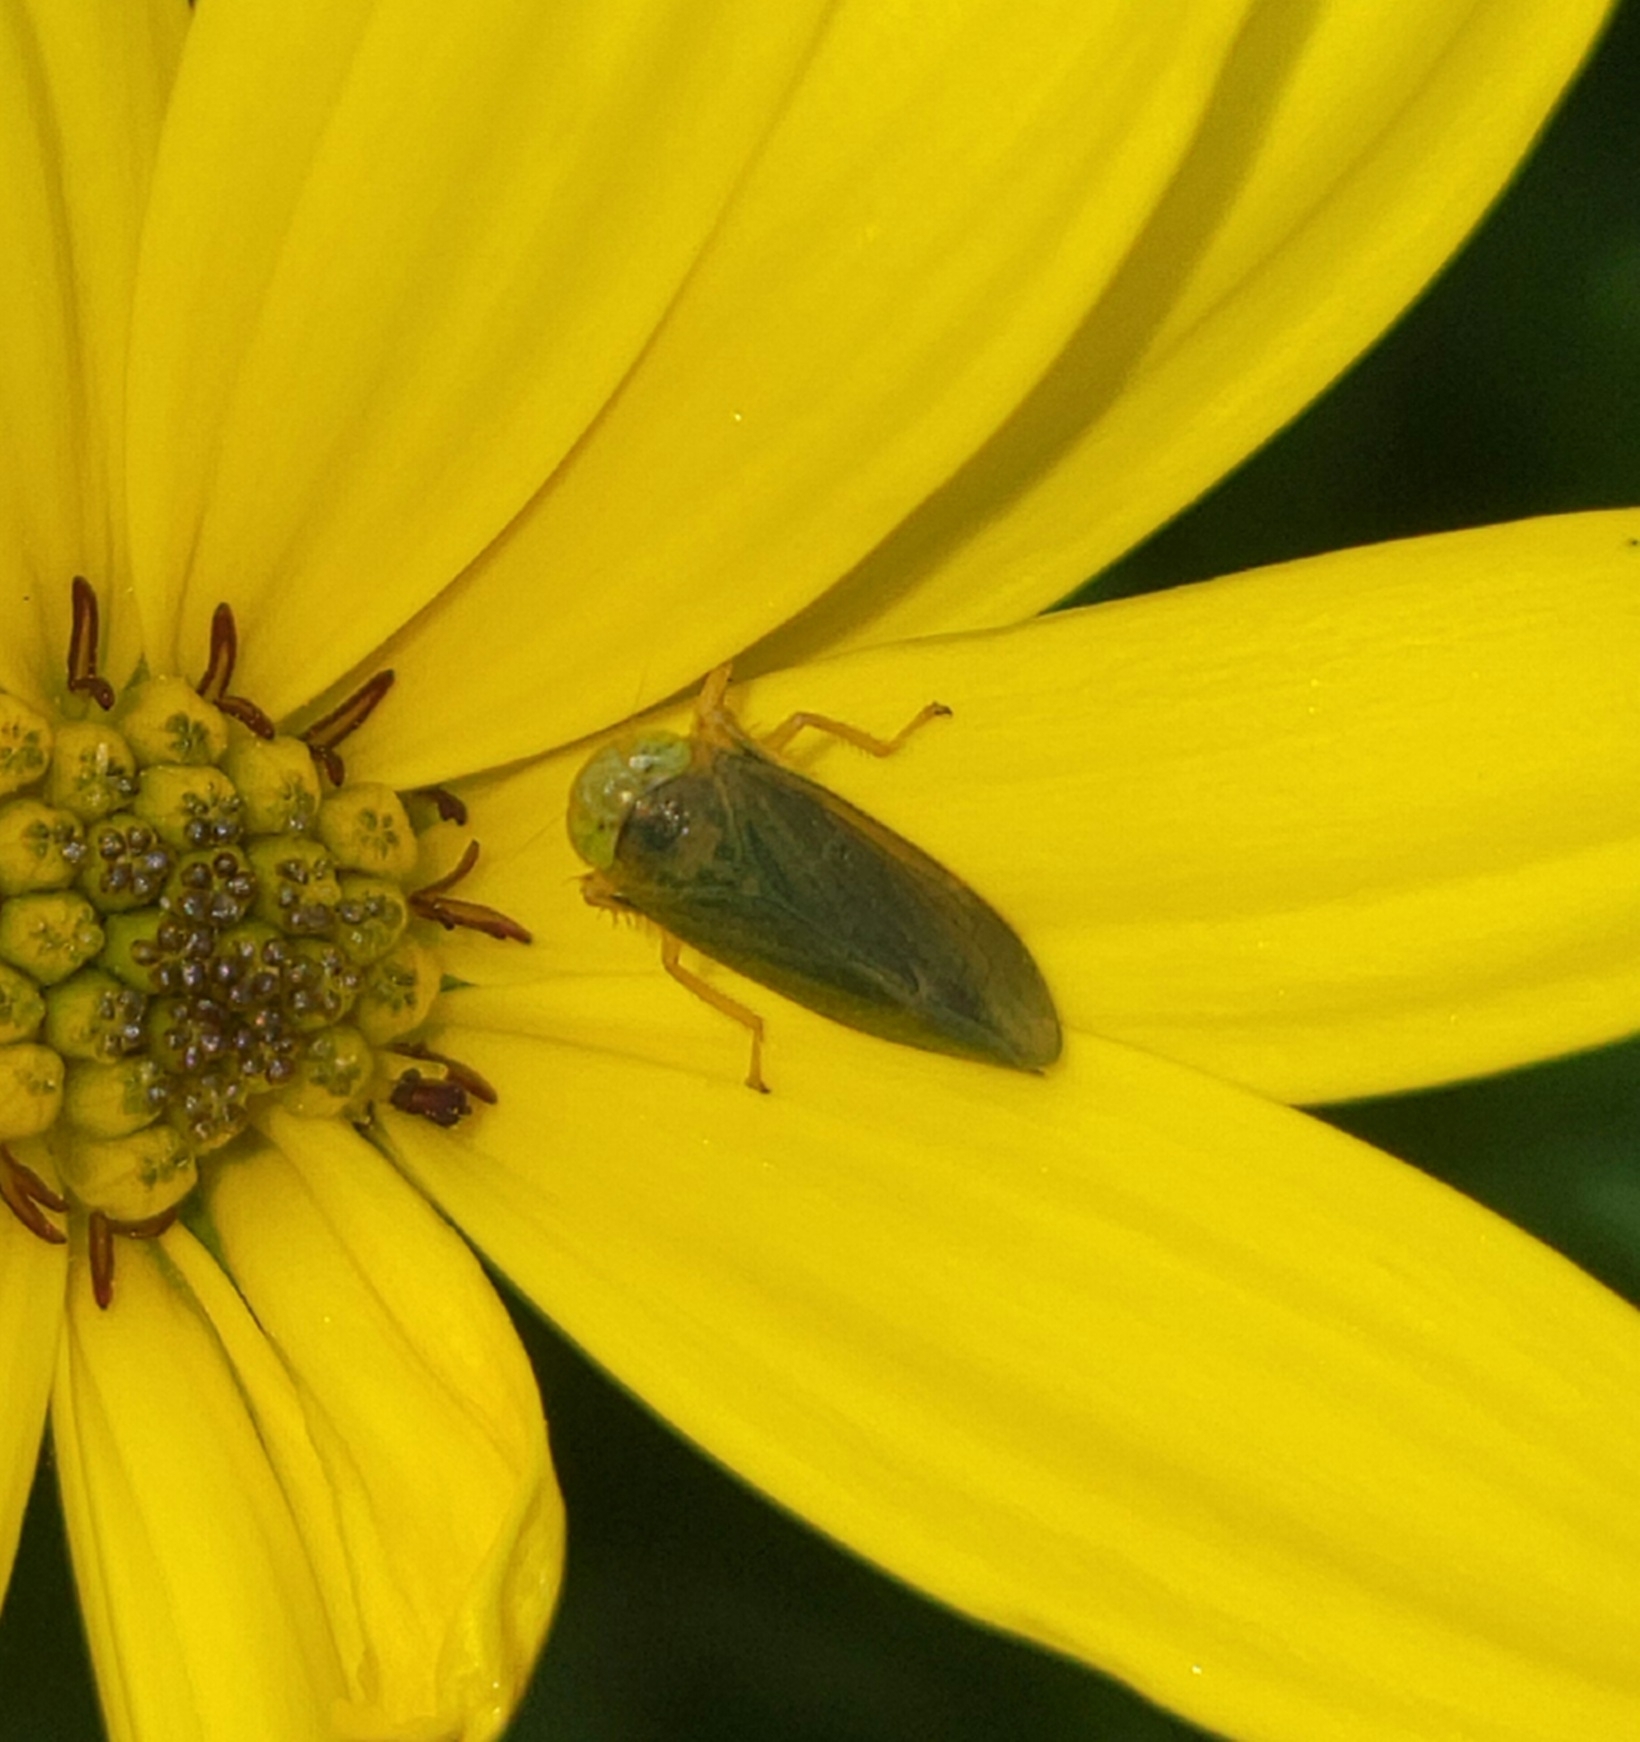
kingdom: Animalia
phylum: Arthropoda
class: Insecta
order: Hemiptera
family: Cicadellidae
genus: Jikradia
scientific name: Jikradia olitoria
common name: Coppery leafhopper
